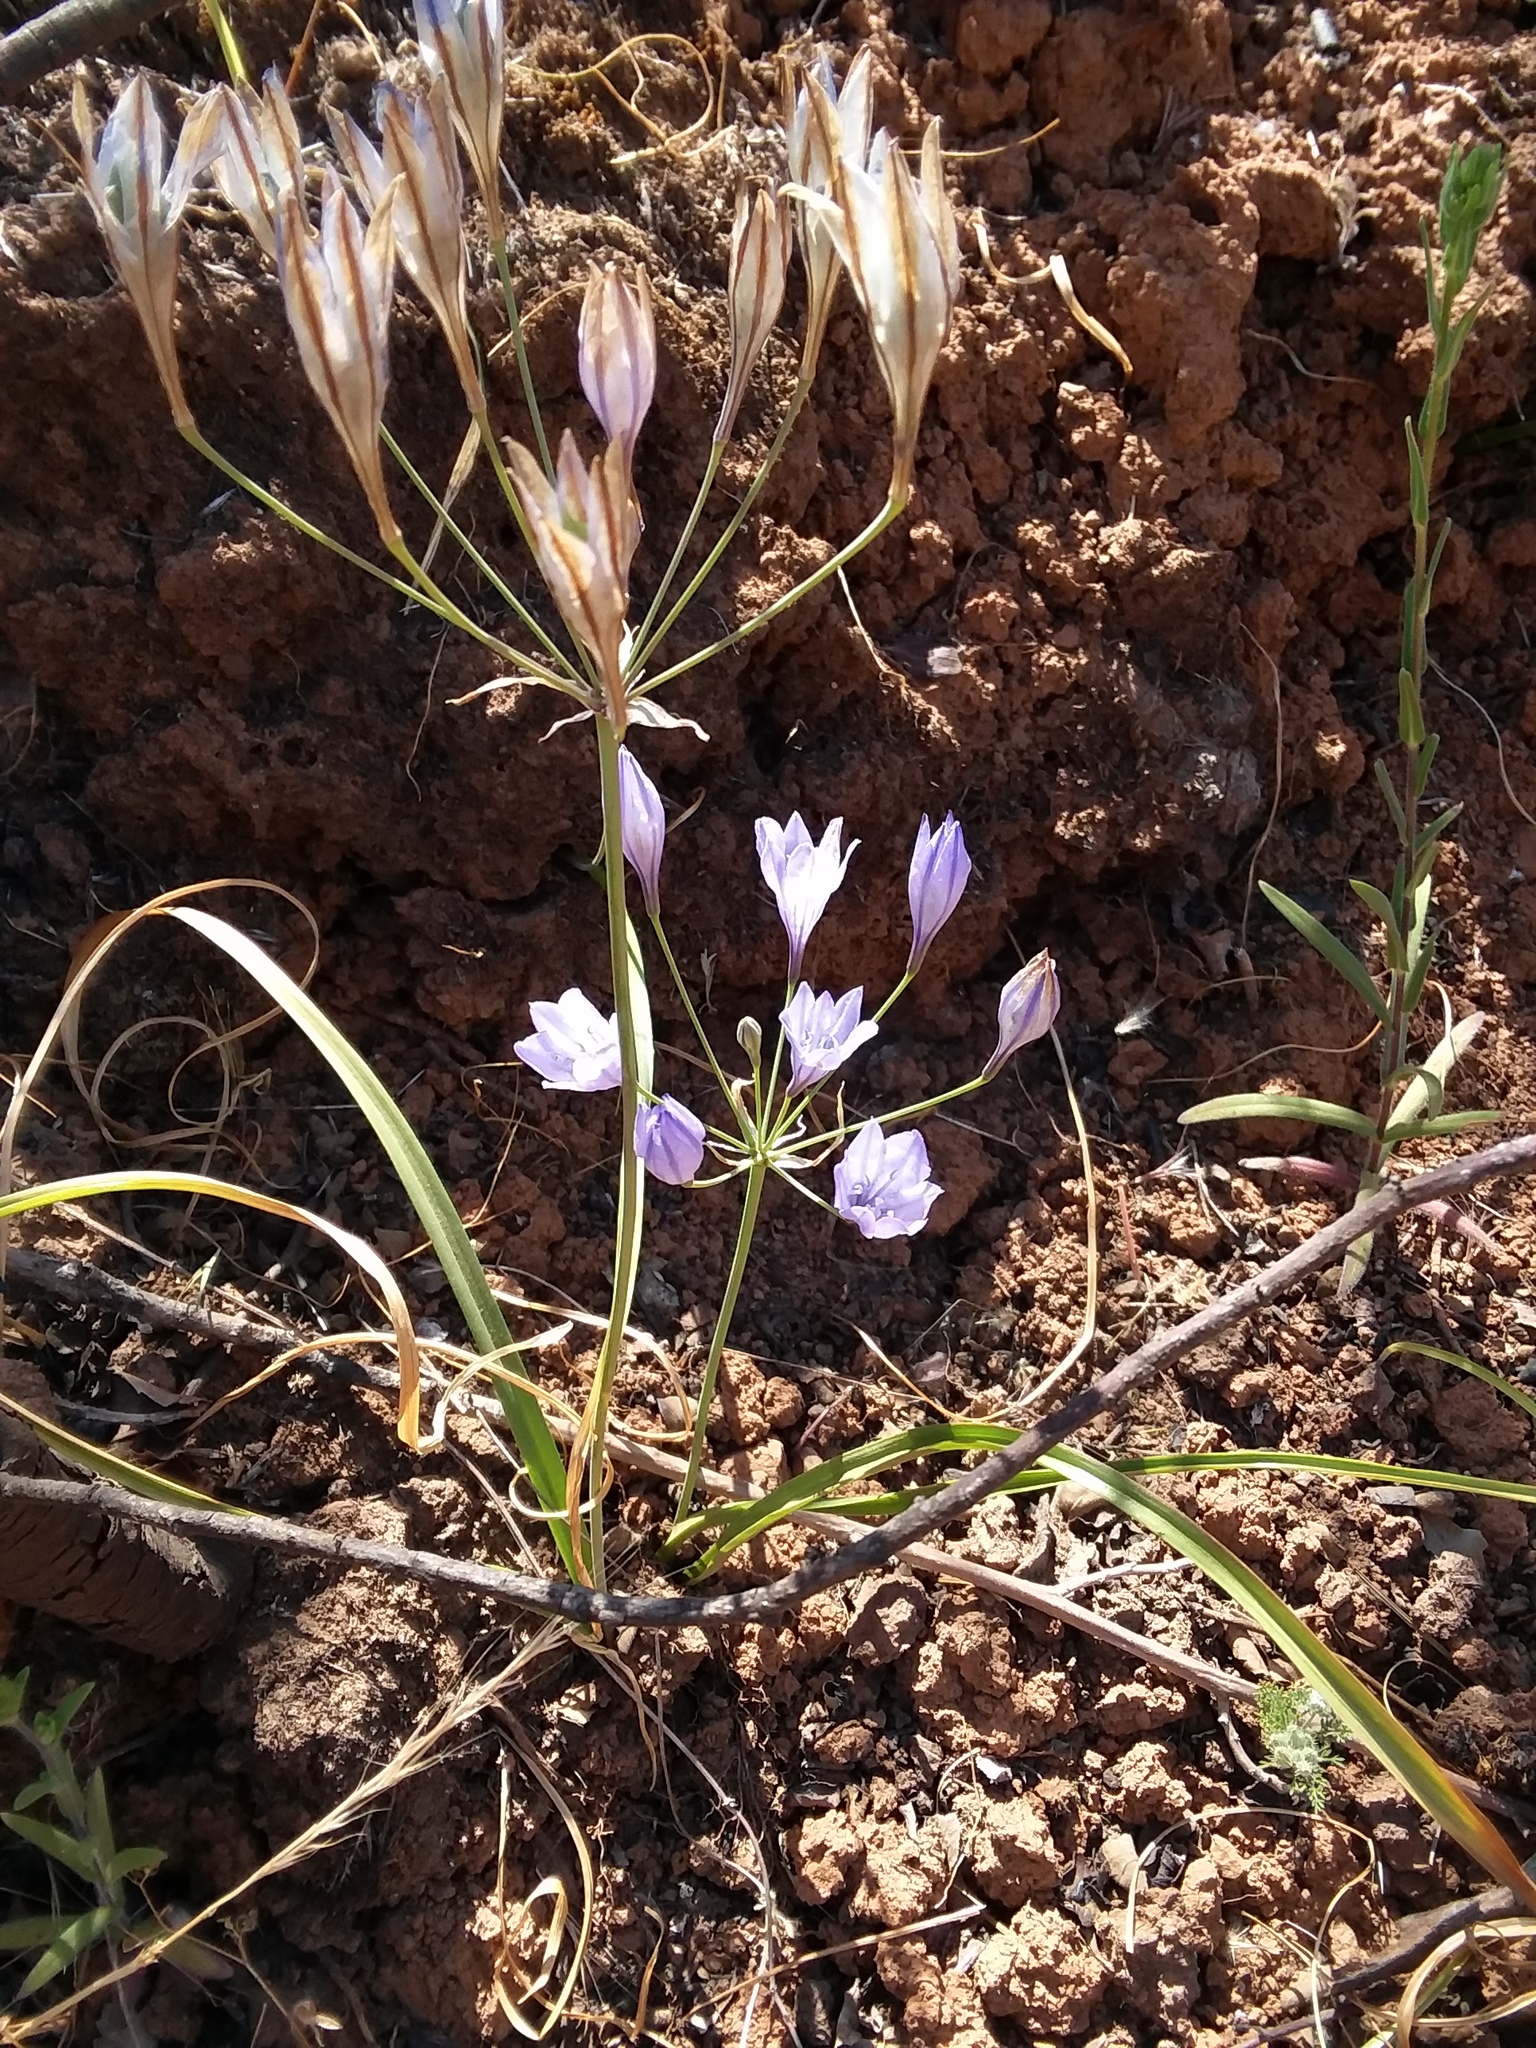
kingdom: Plantae
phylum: Tracheophyta
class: Liliopsida
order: Asparagales
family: Asparagaceae
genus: Triteleia
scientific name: Triteleia laxa
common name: Triplet-lily
